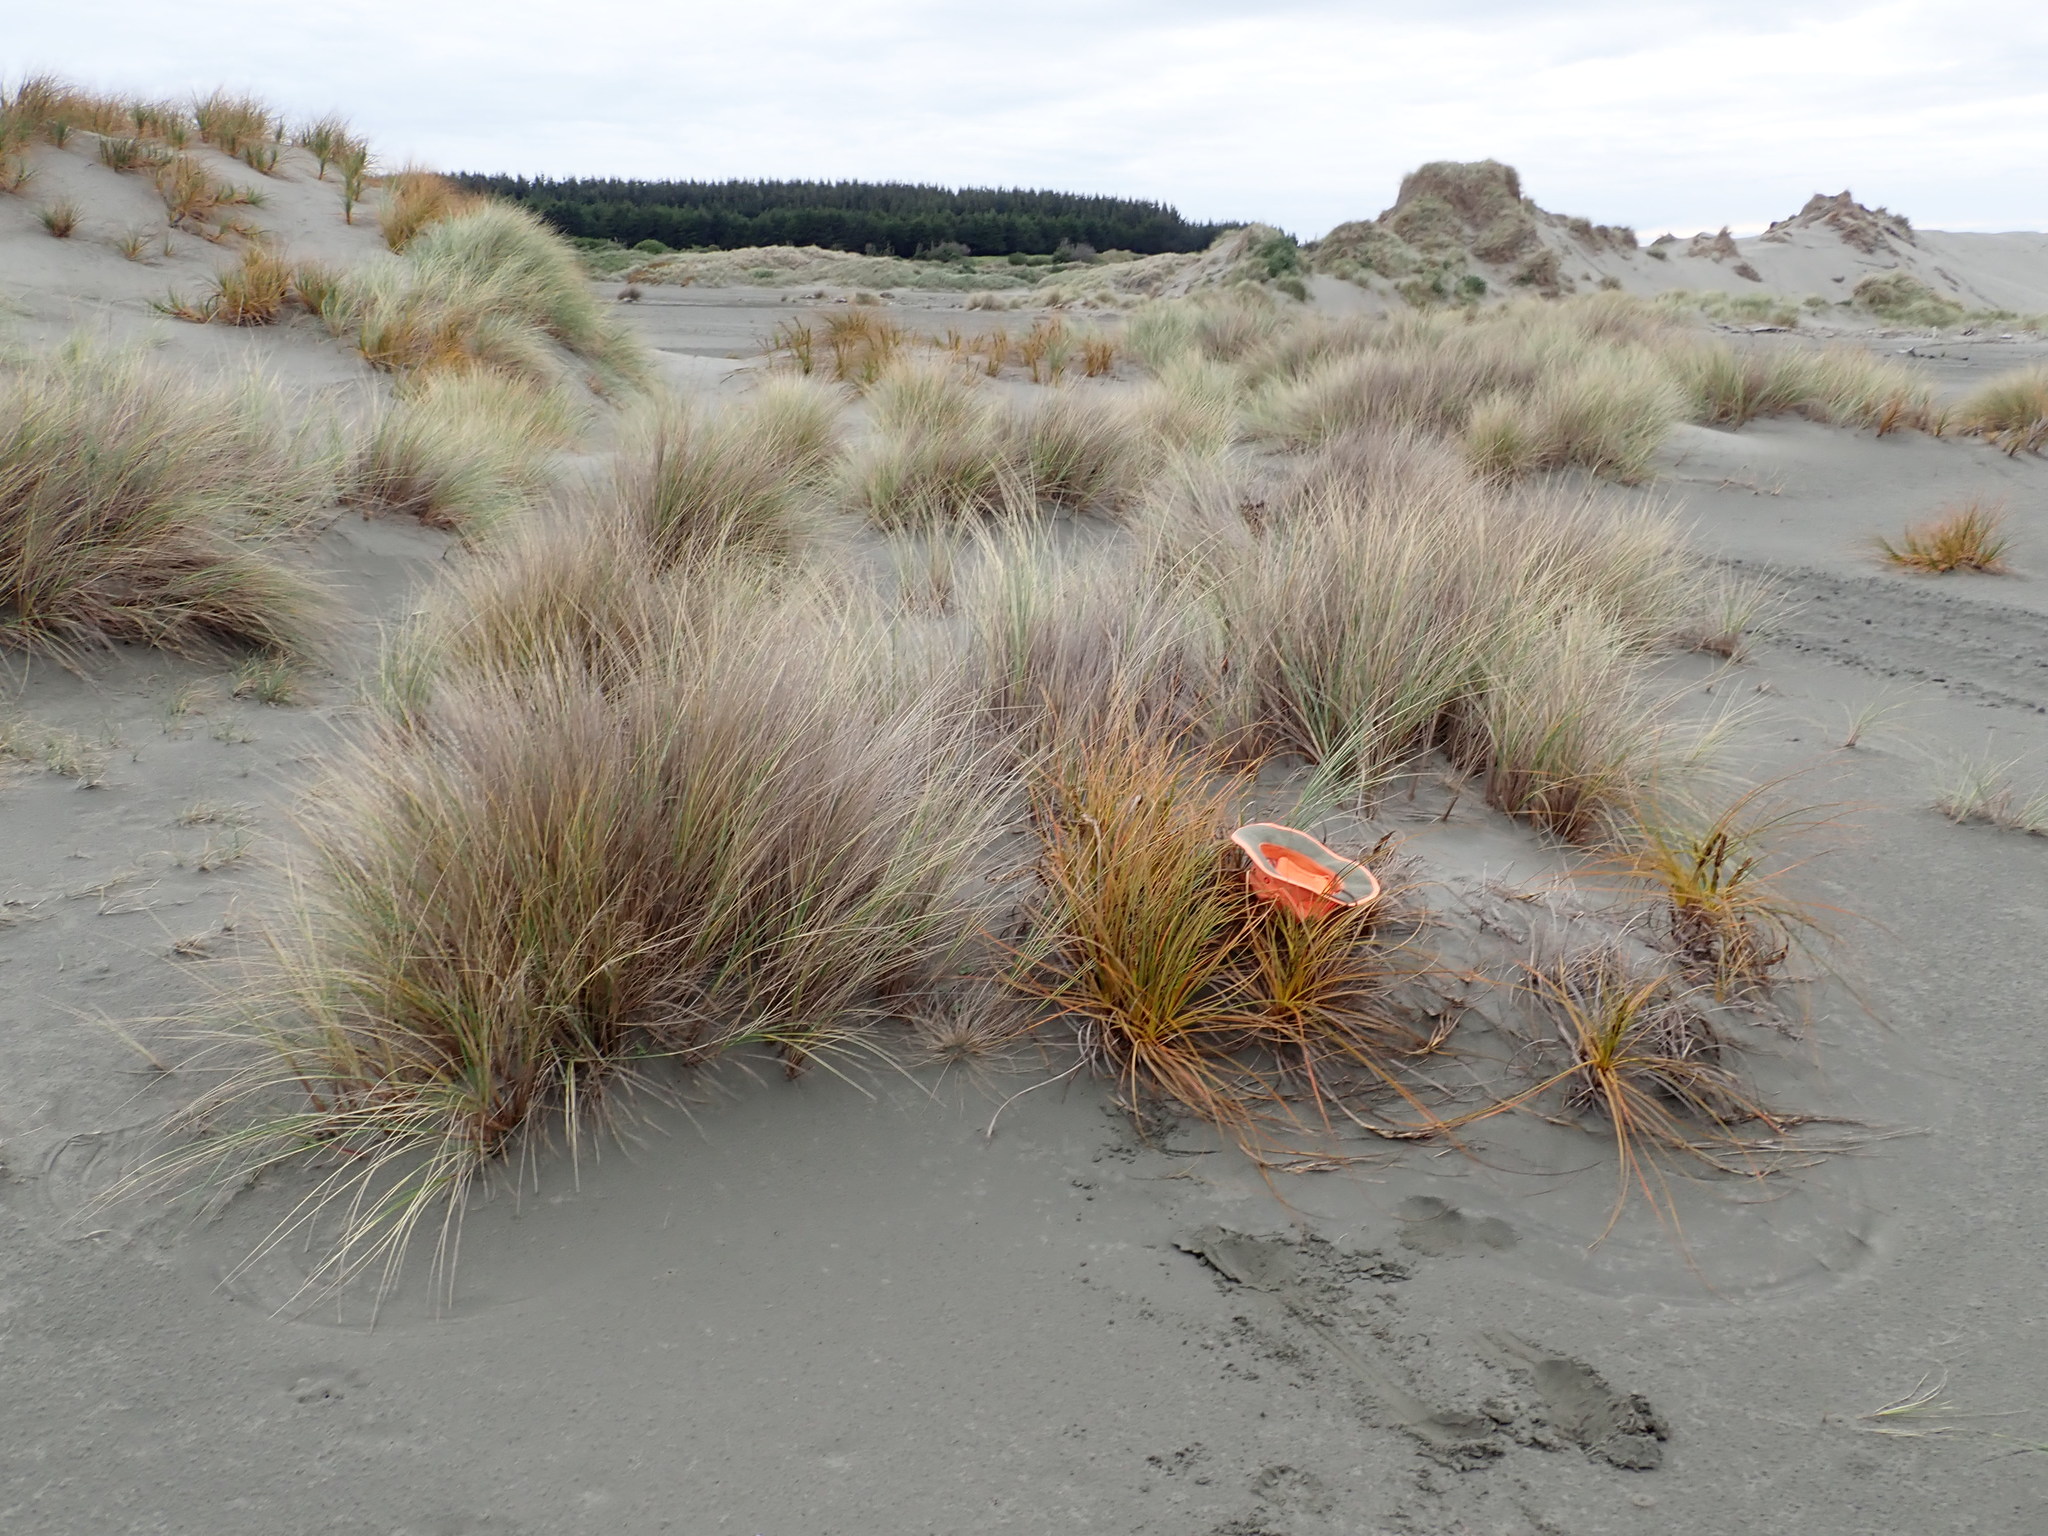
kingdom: Plantae
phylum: Tracheophyta
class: Liliopsida
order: Poales
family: Cyperaceae
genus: Ficinia
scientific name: Ficinia spiralis
